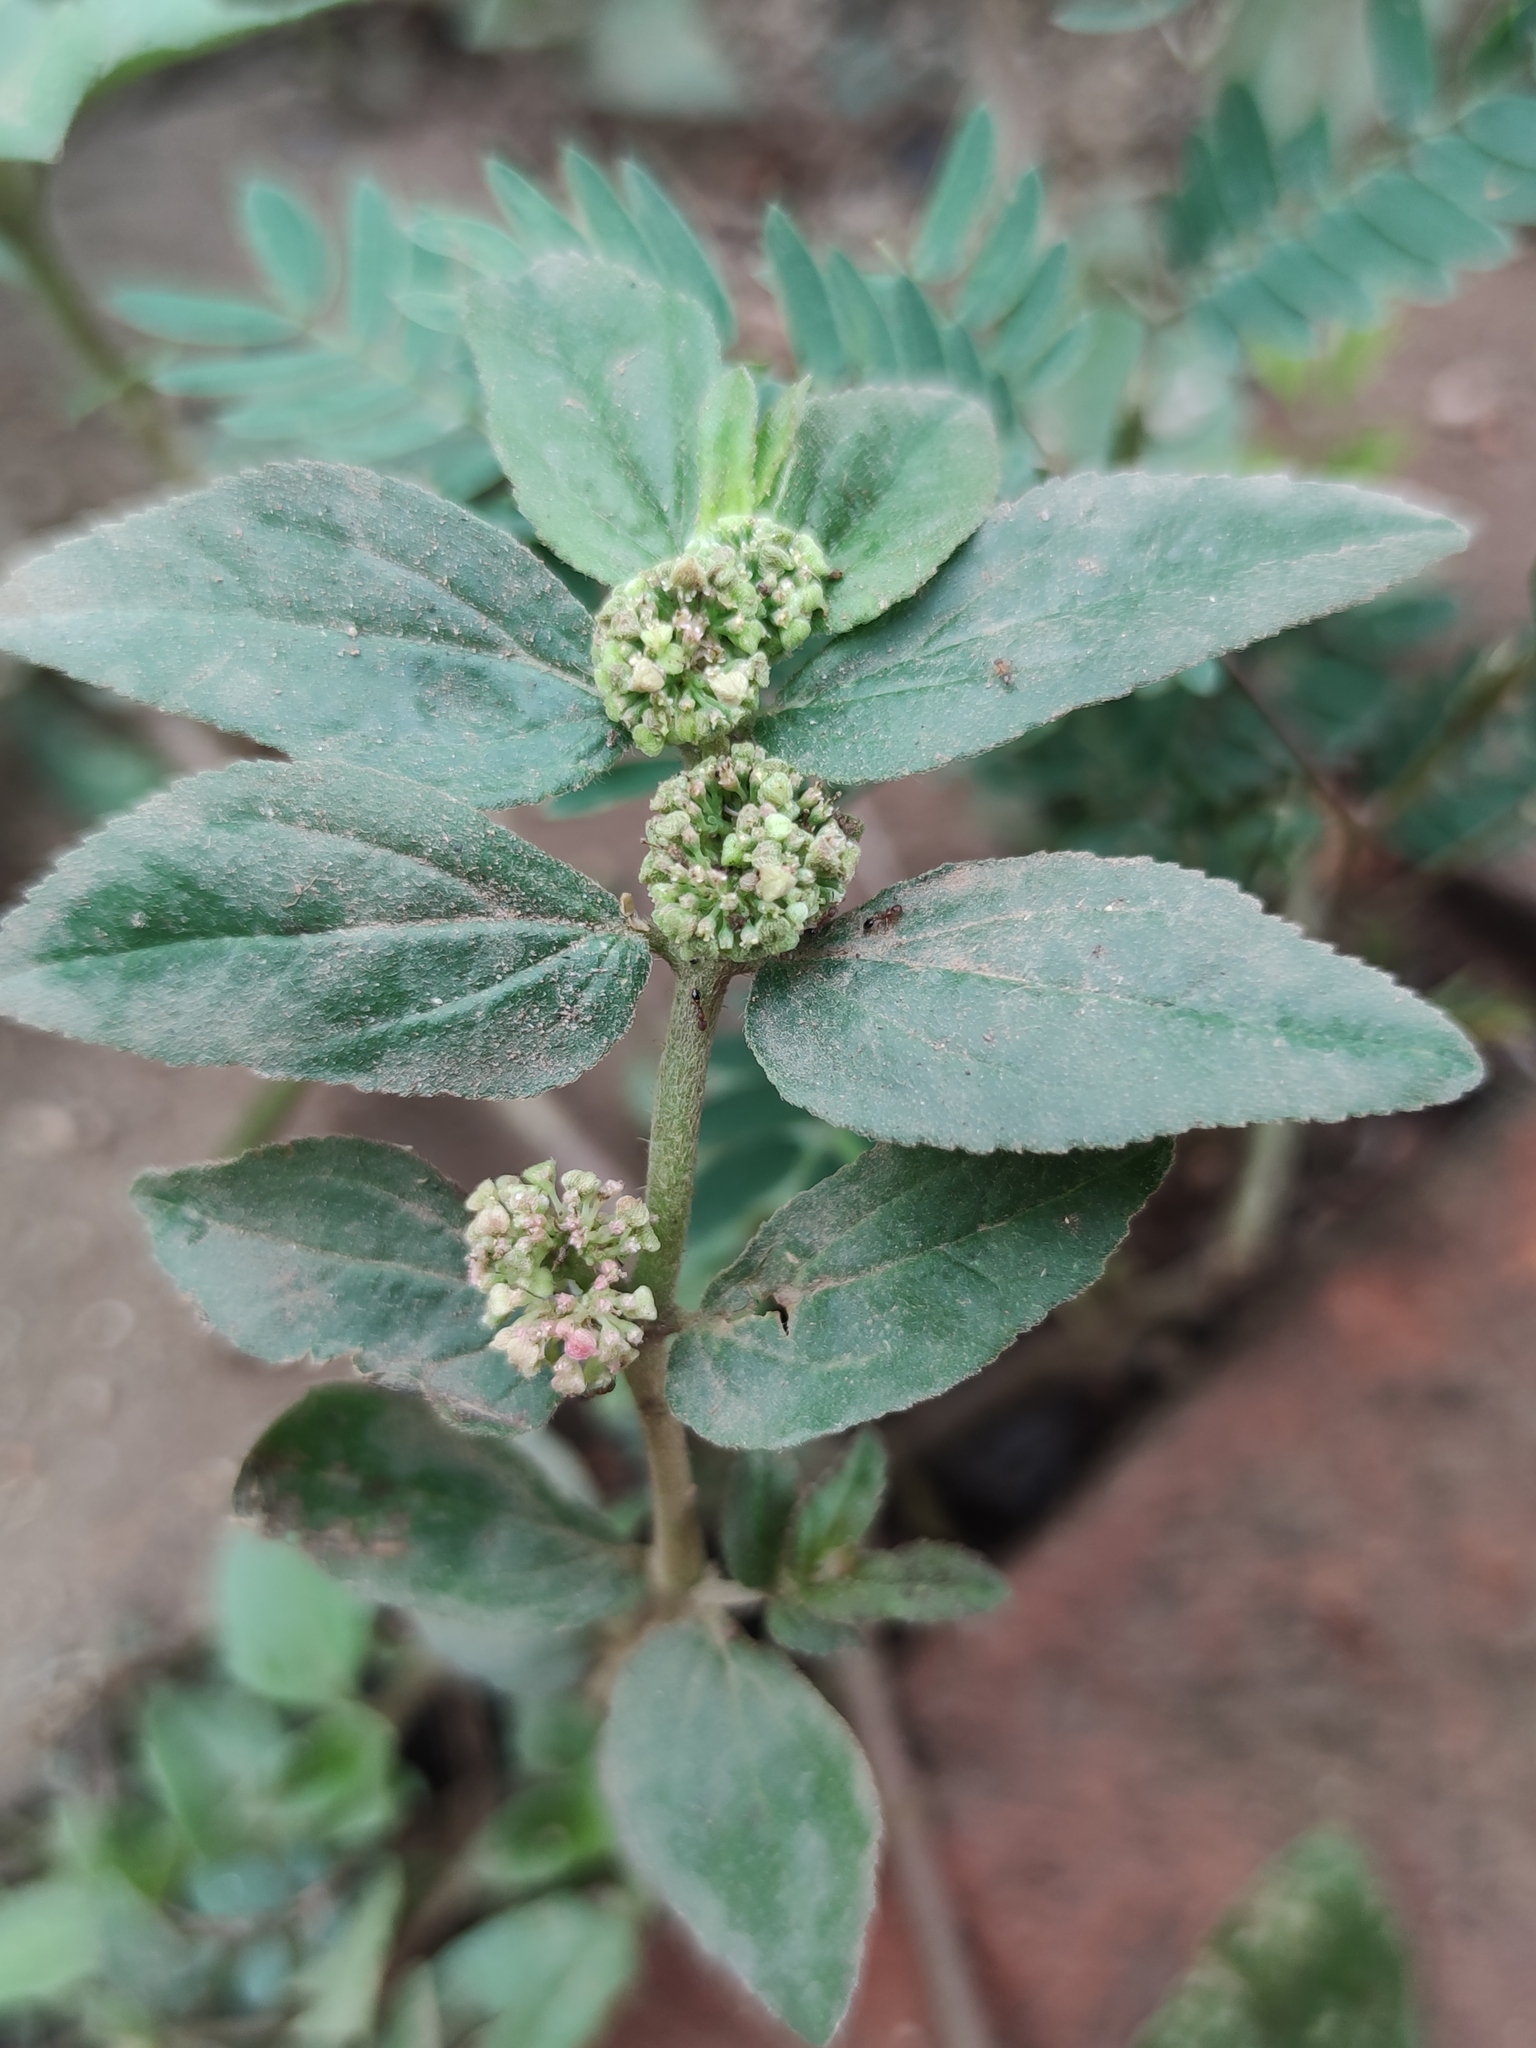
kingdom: Plantae
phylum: Tracheophyta
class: Magnoliopsida
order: Malpighiales
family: Euphorbiaceae
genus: Euphorbia
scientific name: Euphorbia hirta
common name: Pillpod sandmat
